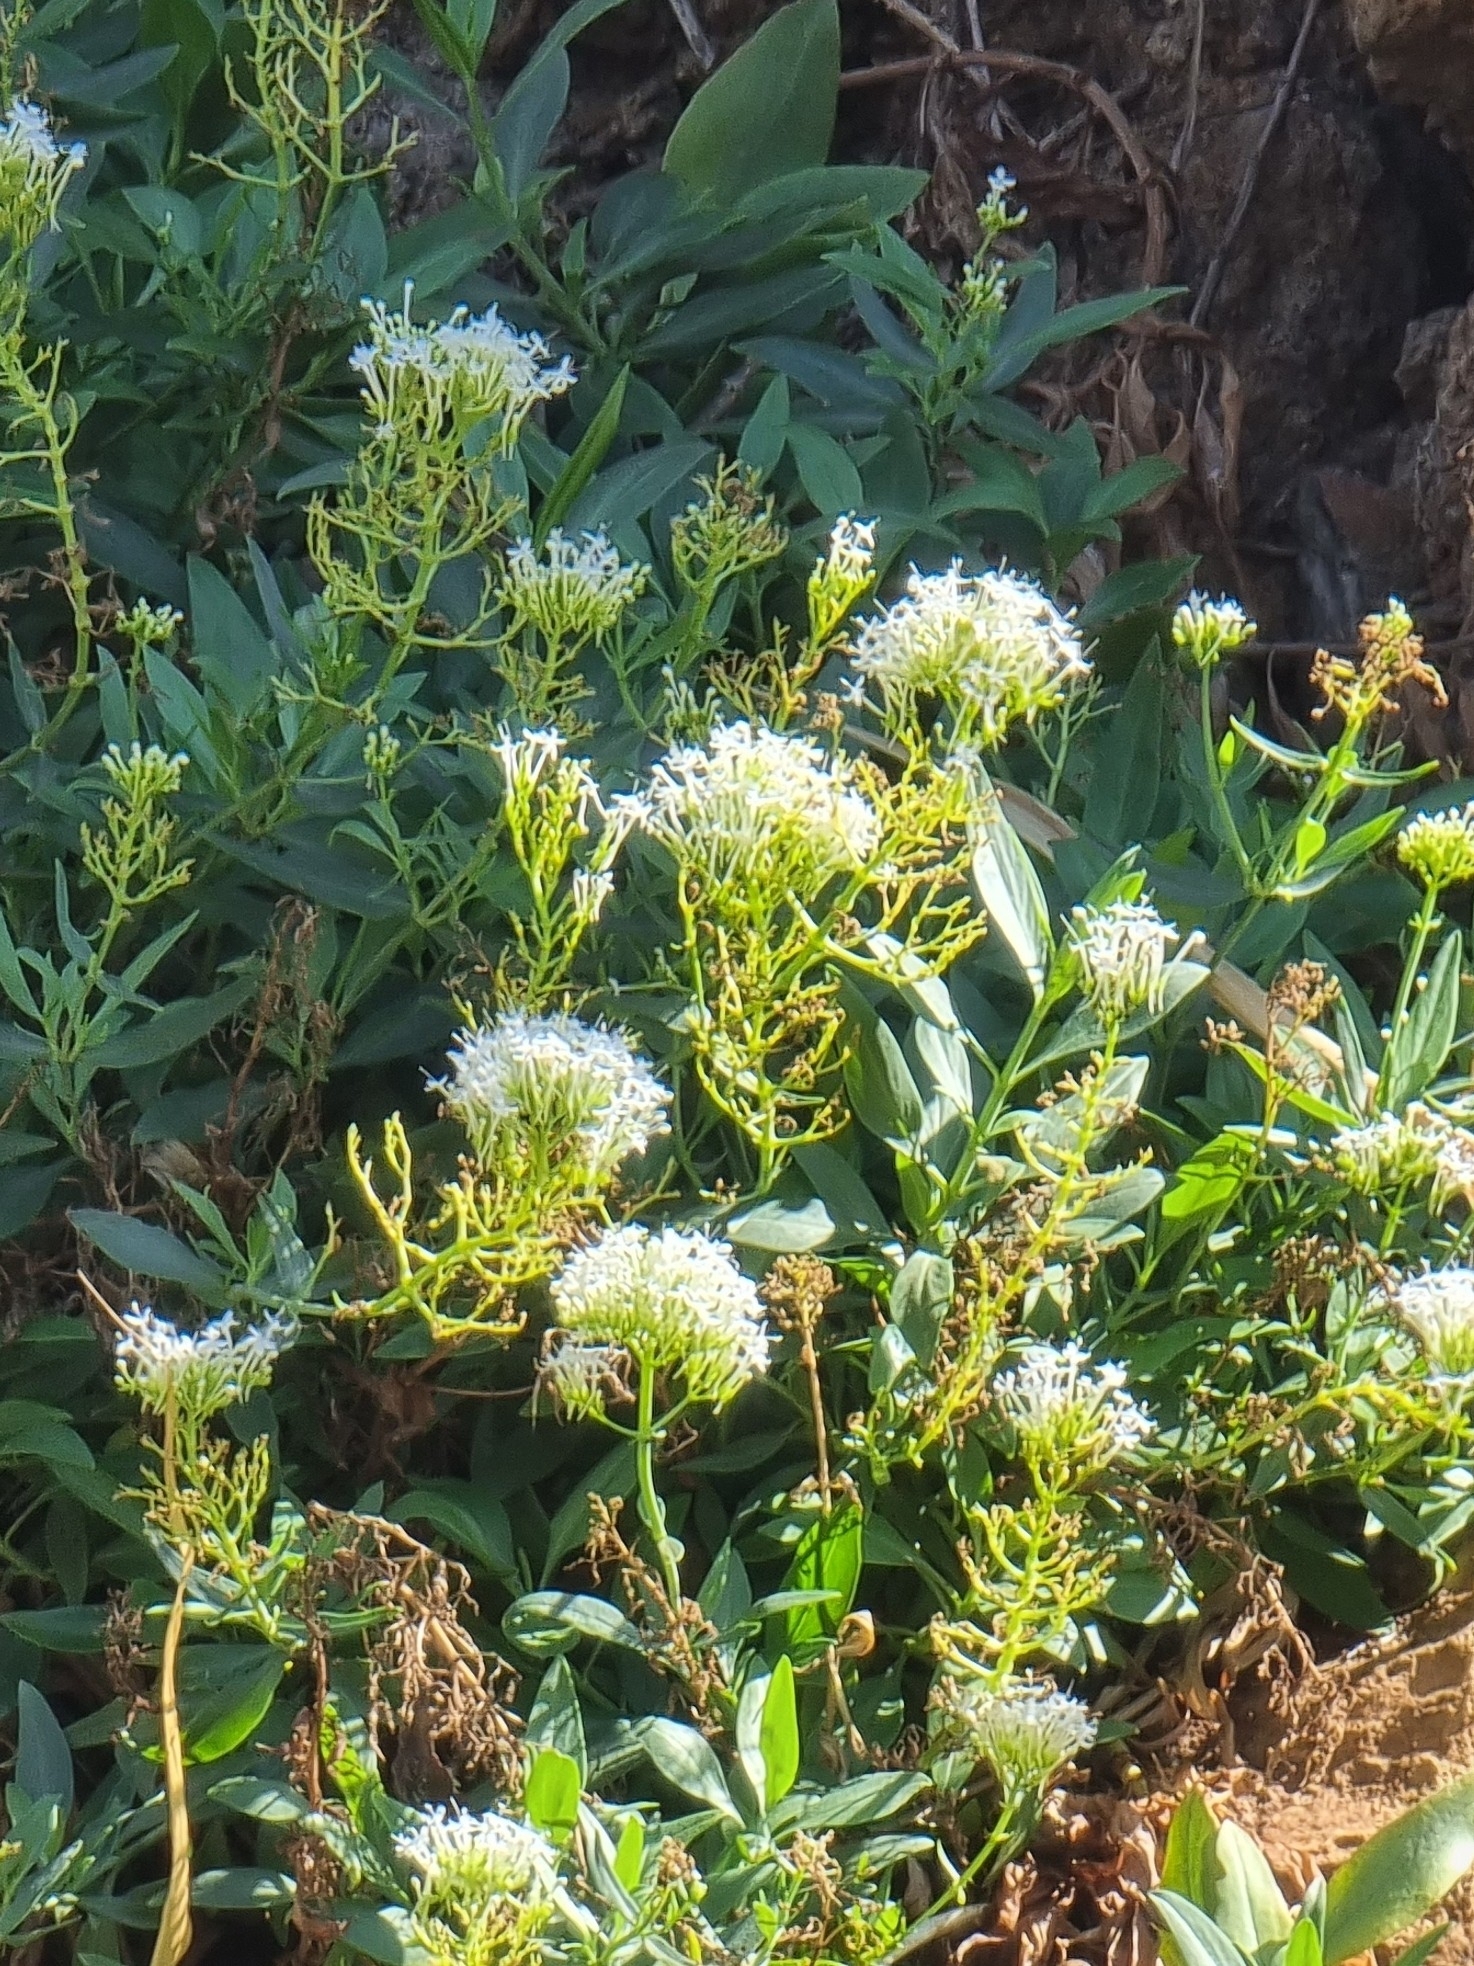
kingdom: Plantae
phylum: Tracheophyta
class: Magnoliopsida
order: Dipsacales
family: Caprifoliaceae
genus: Centranthus
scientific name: Centranthus ruber
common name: Red valerian
